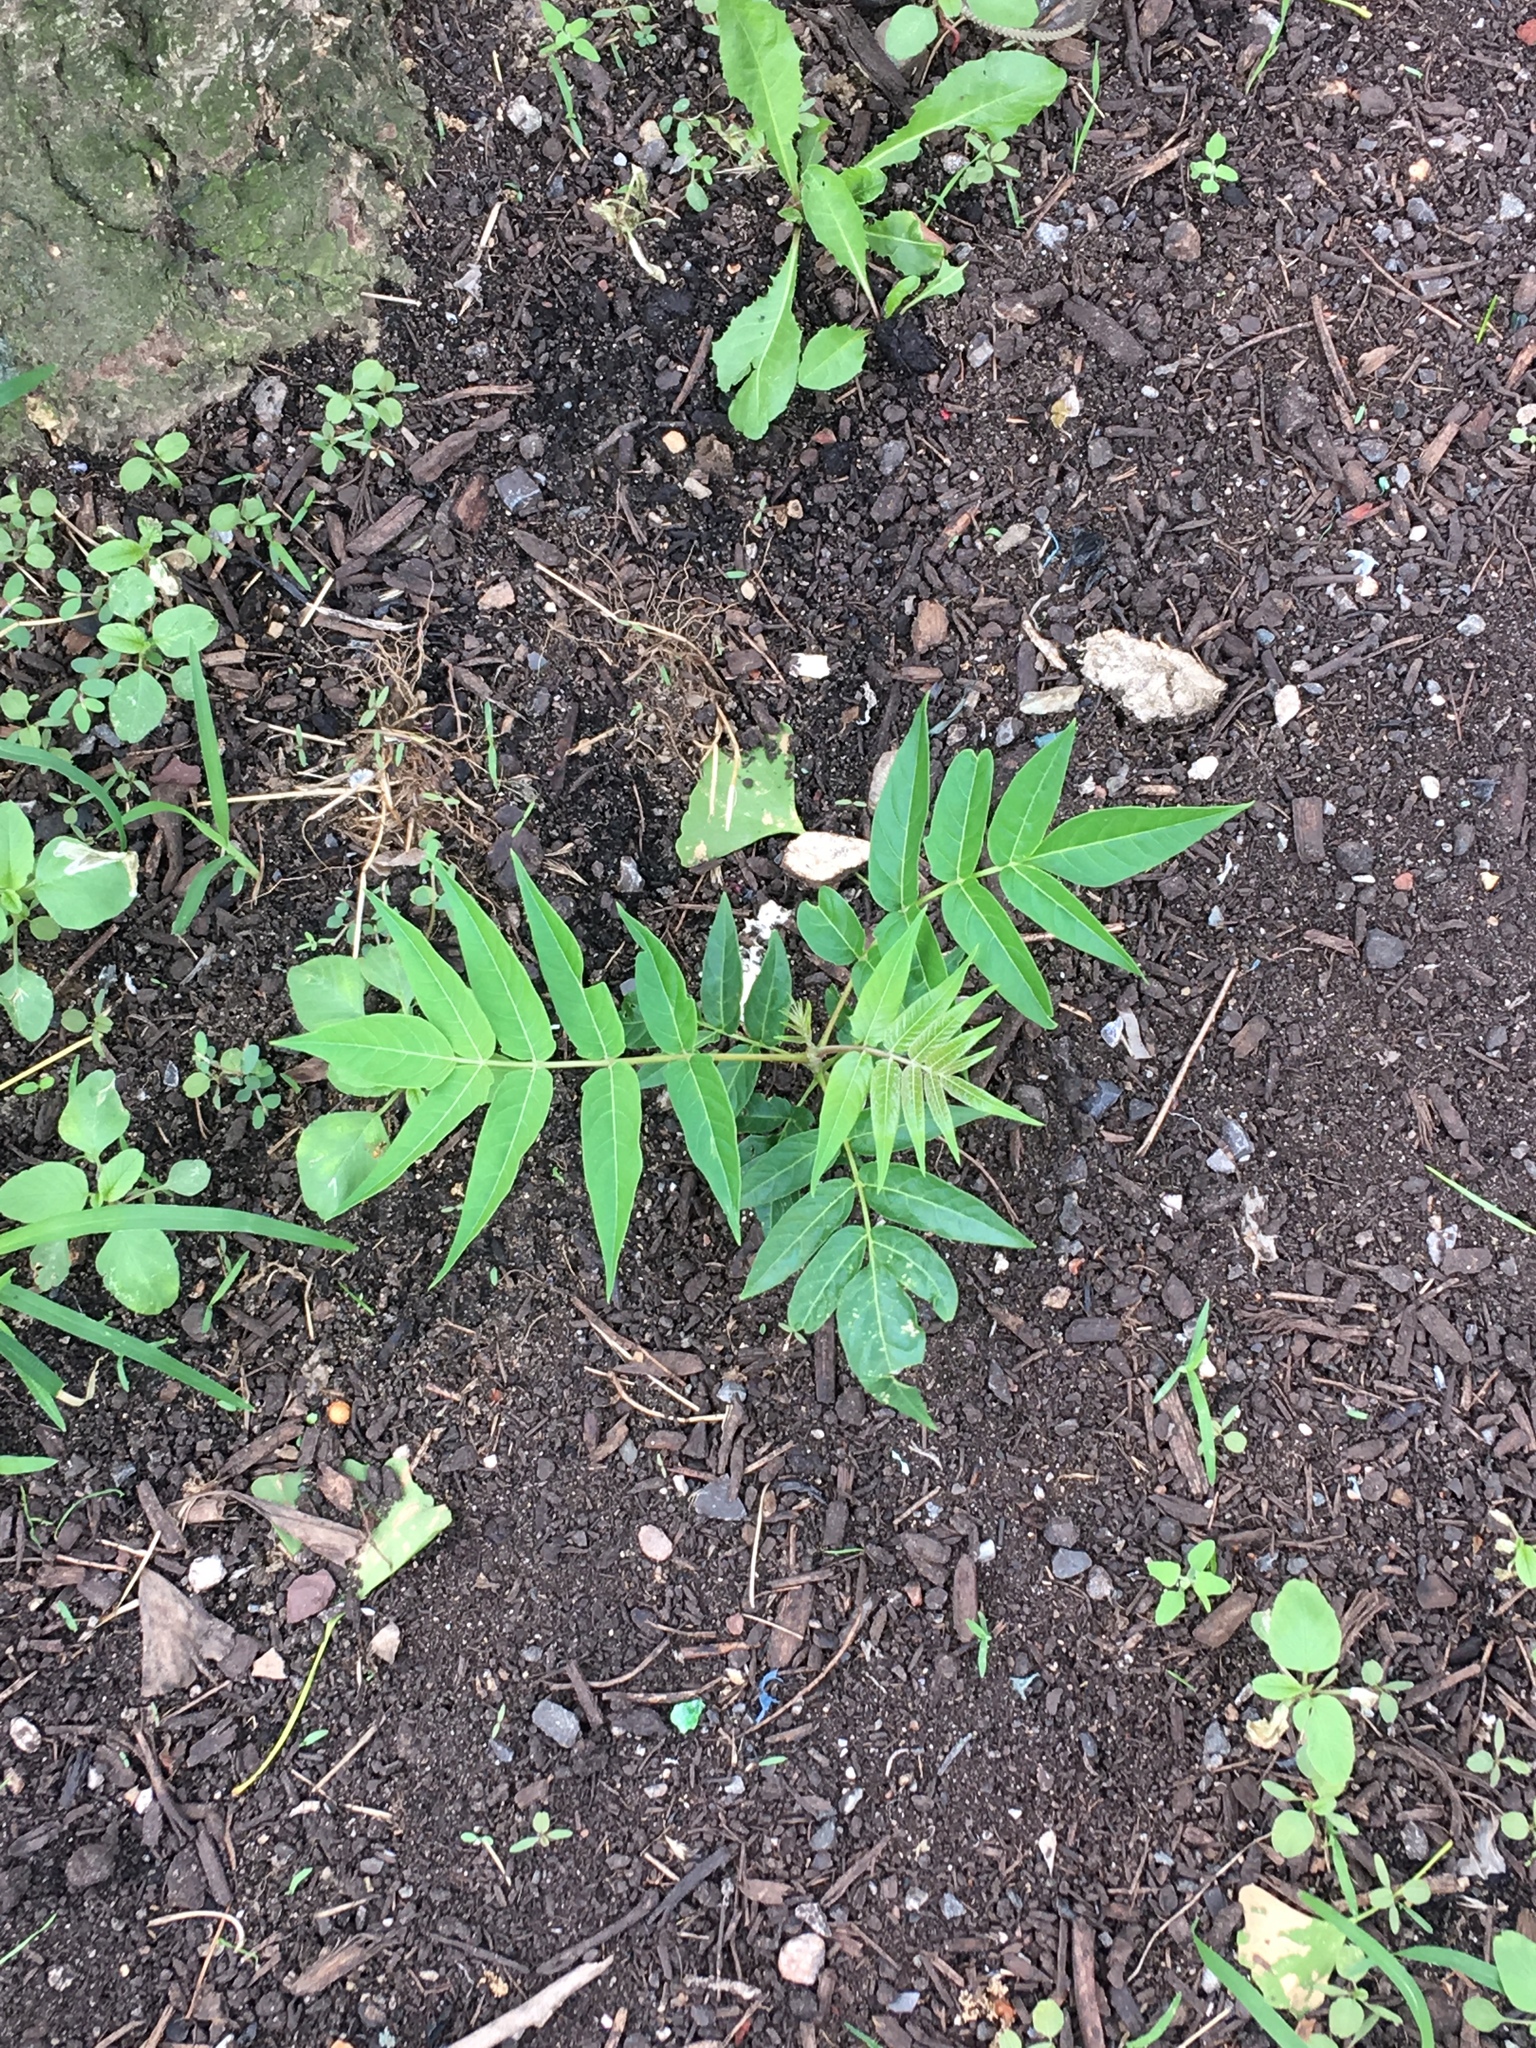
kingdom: Plantae
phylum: Tracheophyta
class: Magnoliopsida
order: Sapindales
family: Simaroubaceae
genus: Ailanthus
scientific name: Ailanthus altissima
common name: Tree-of-heaven
